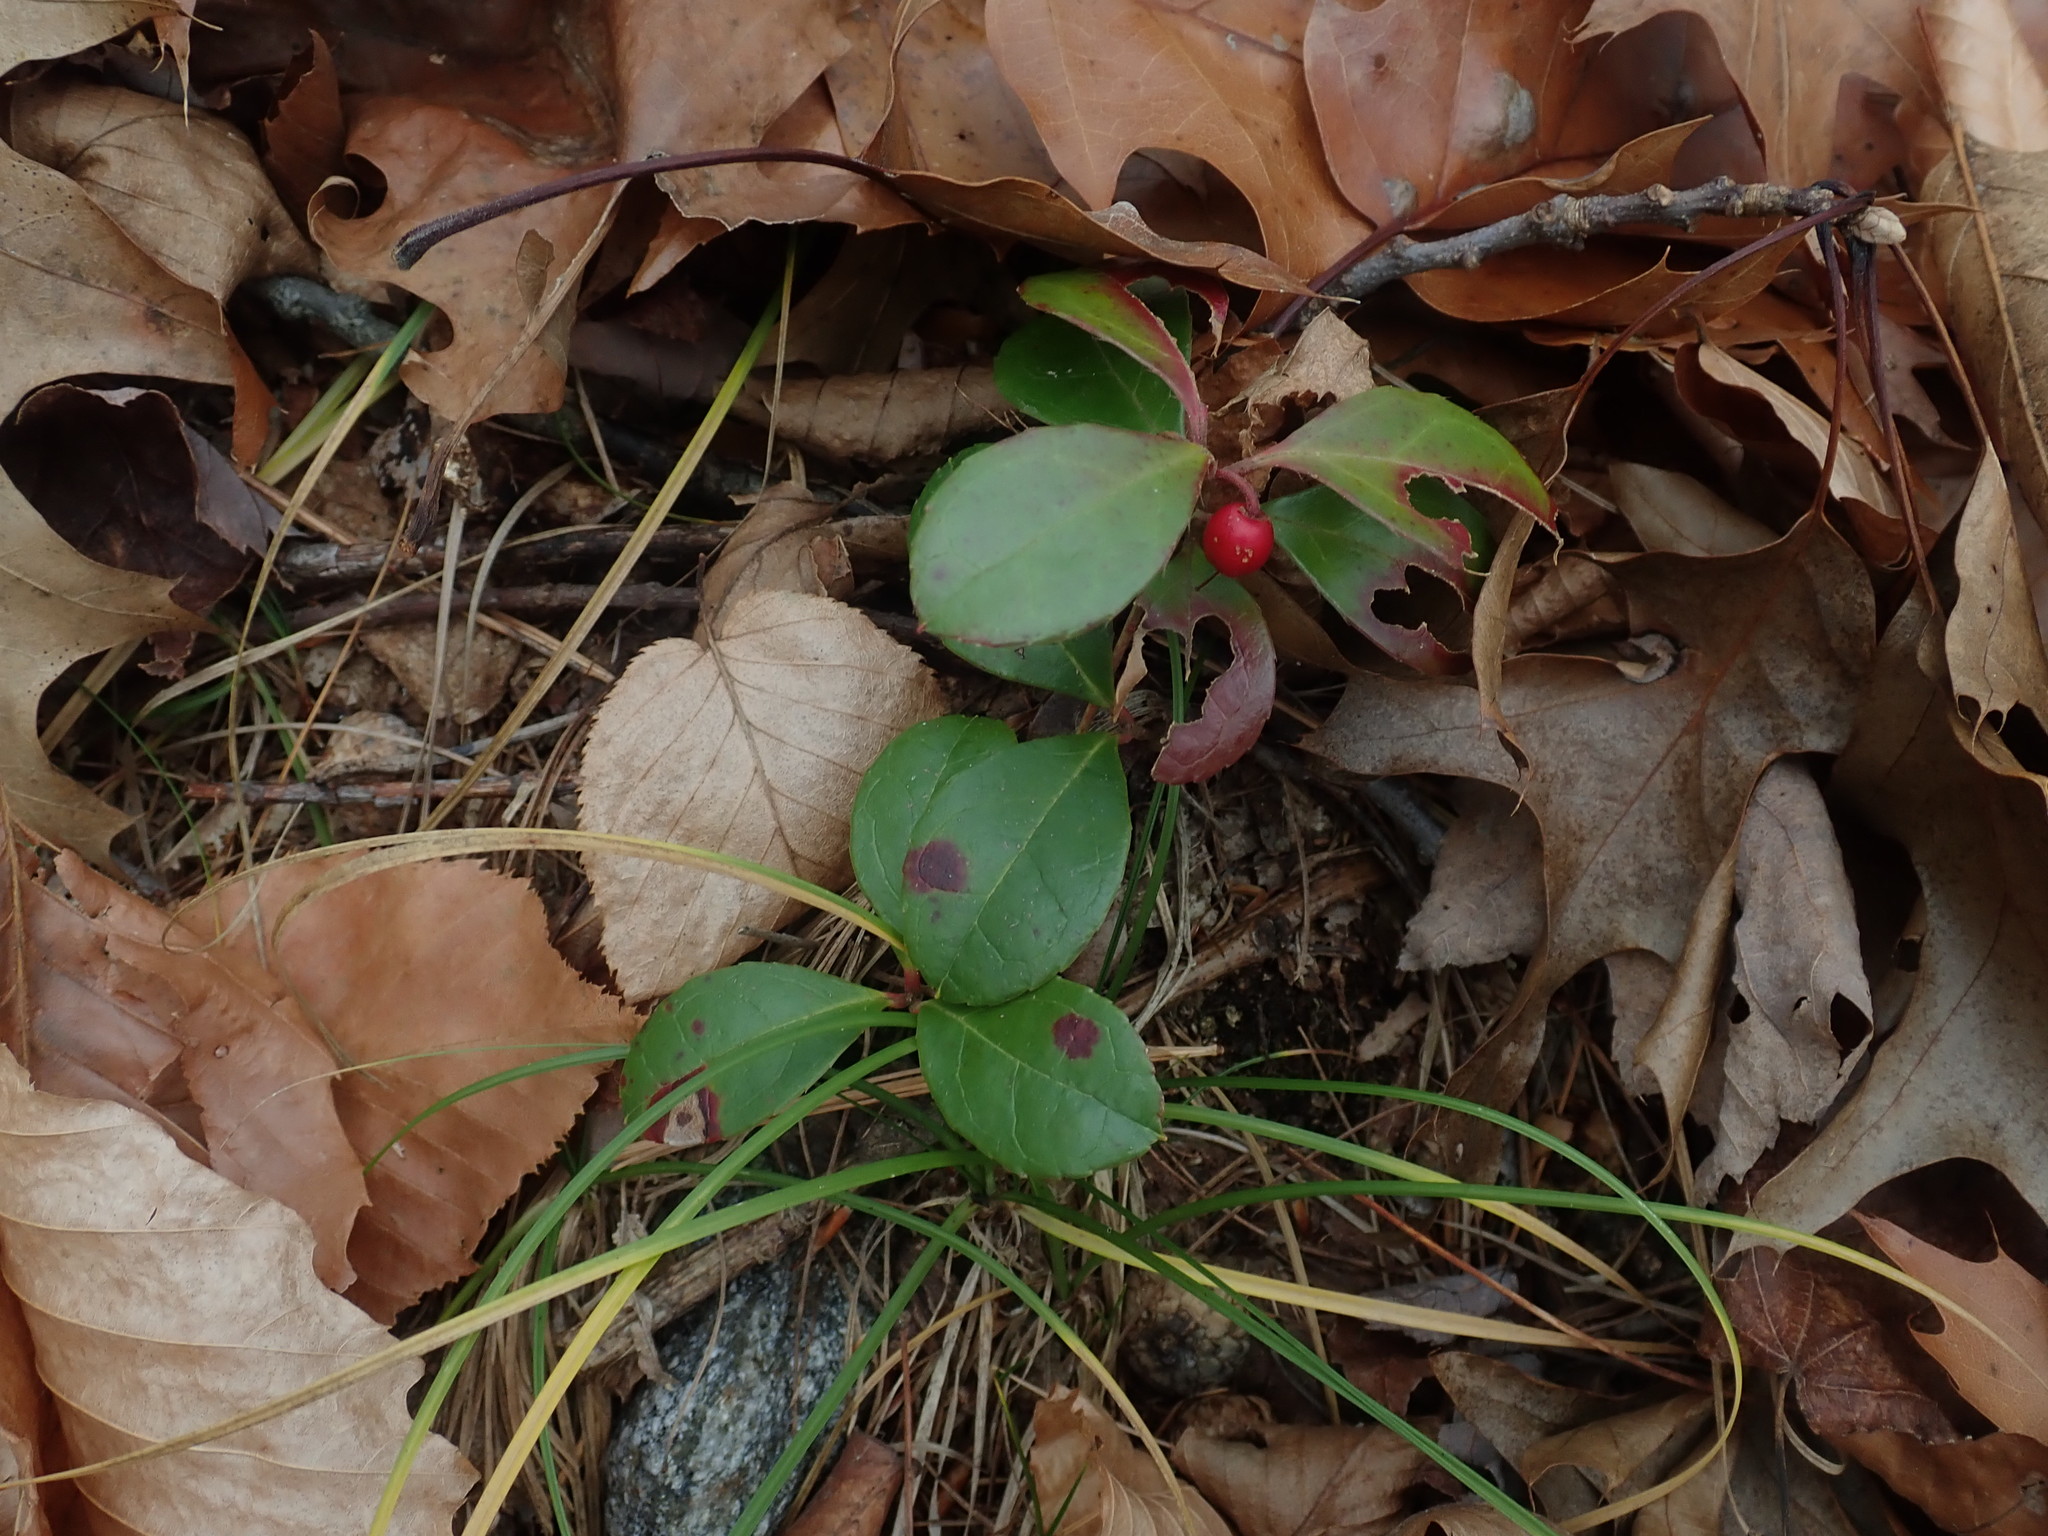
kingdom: Plantae
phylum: Tracheophyta
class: Magnoliopsida
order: Ericales
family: Ericaceae
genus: Gaultheria
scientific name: Gaultheria procumbens
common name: Checkerberry
